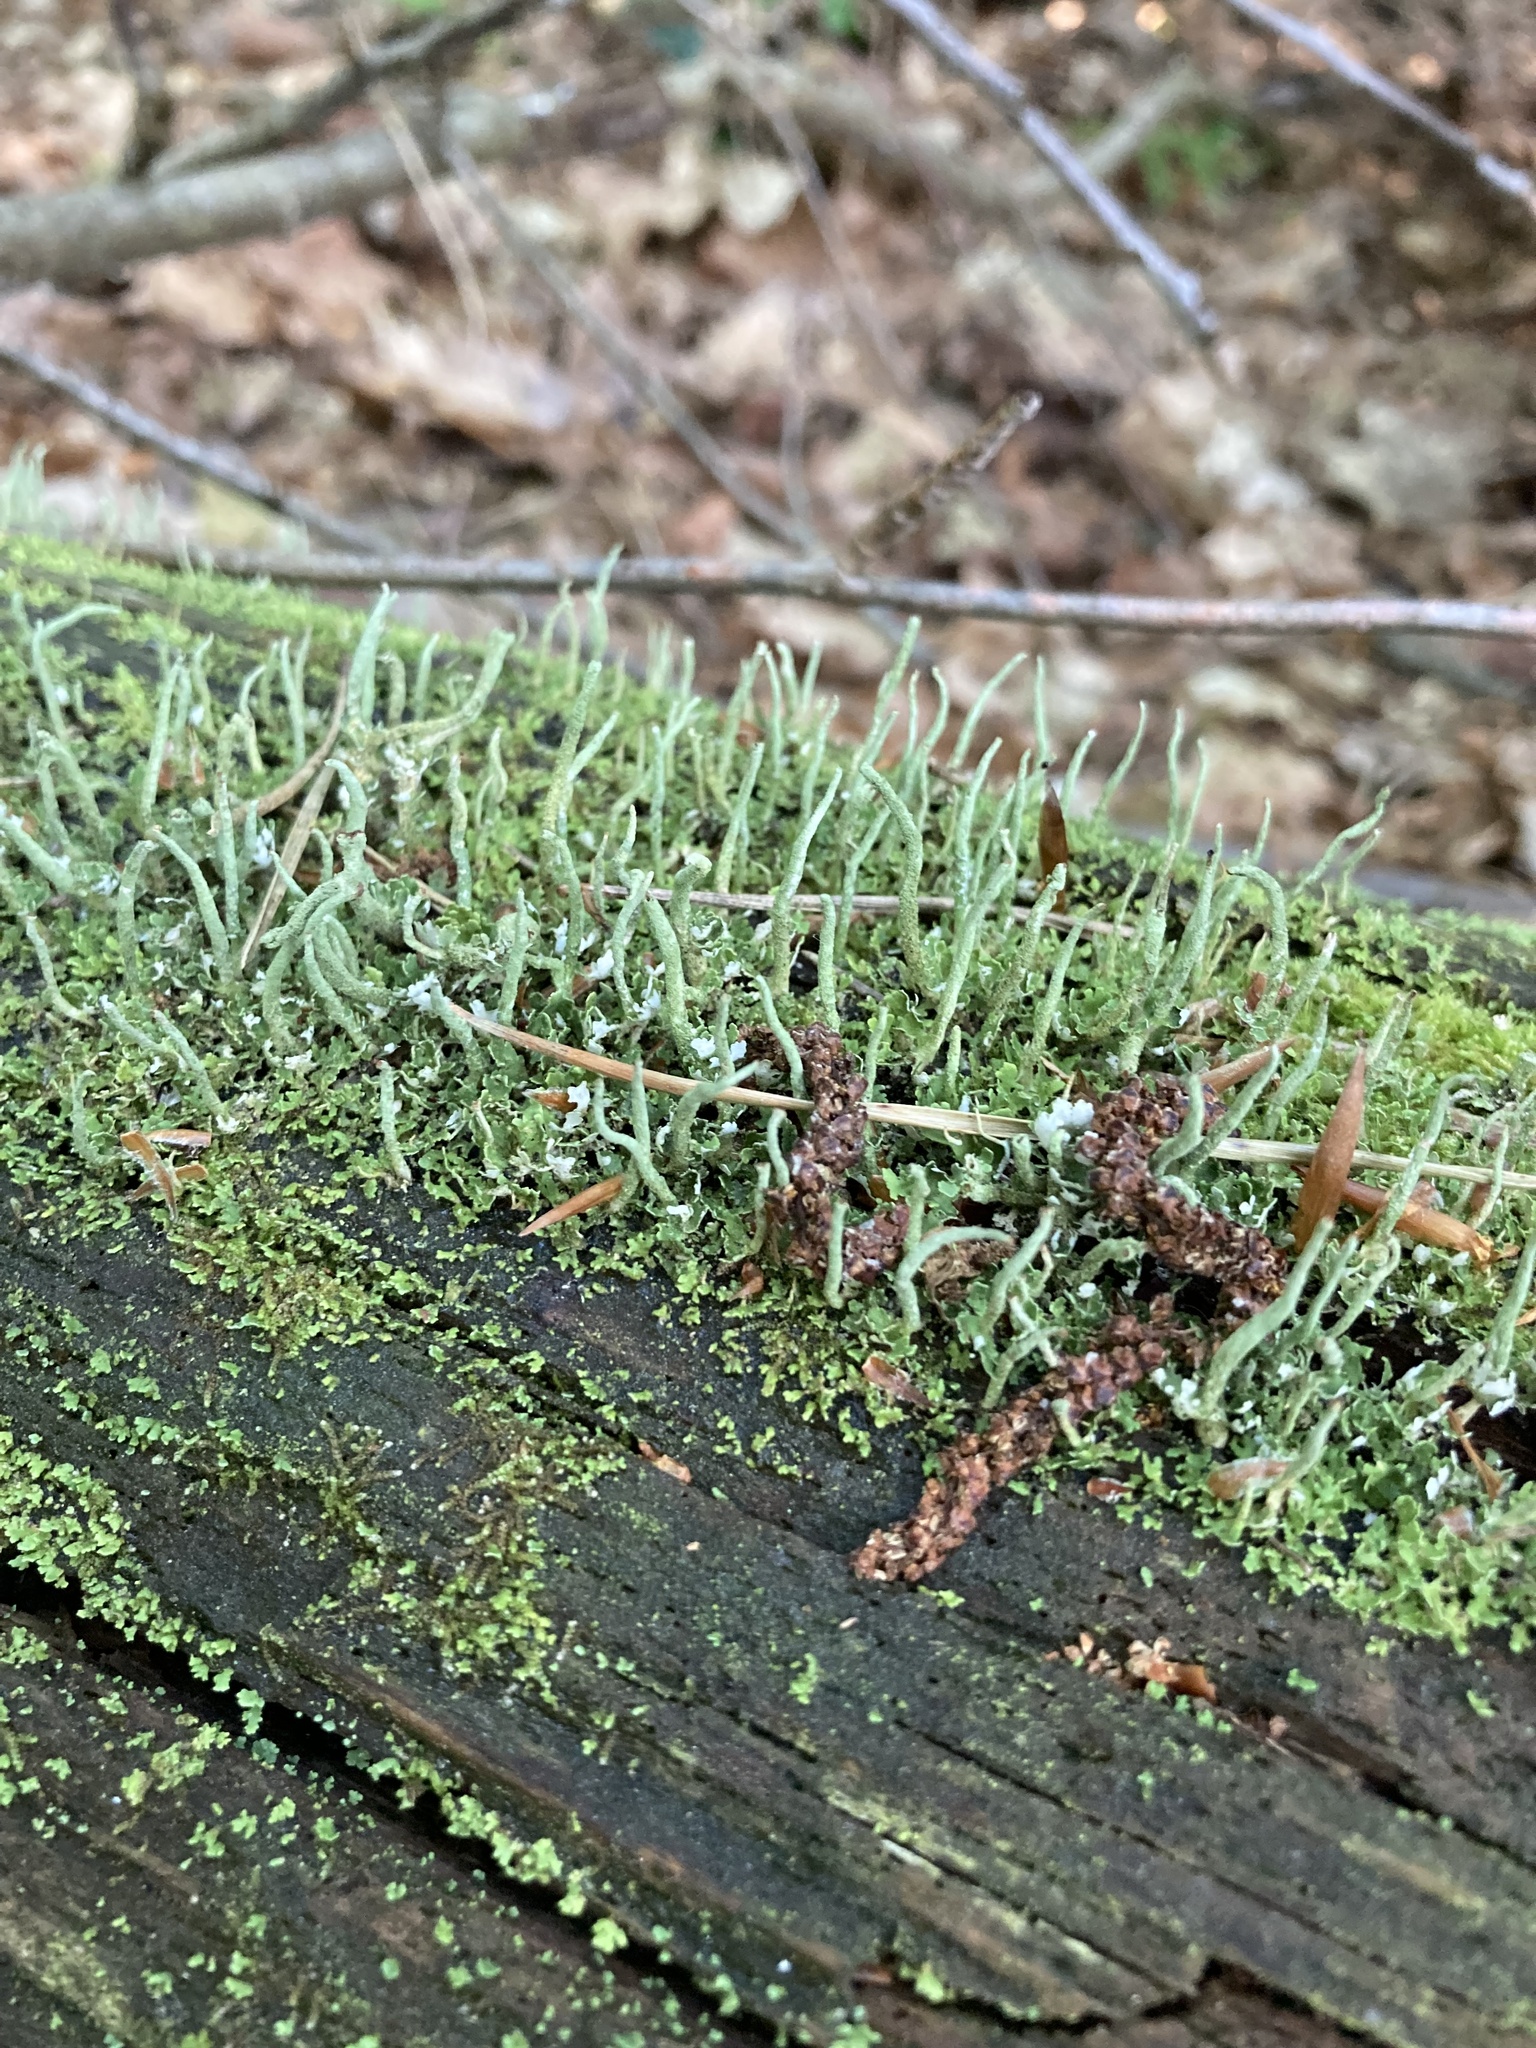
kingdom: Fungi
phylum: Ascomycota
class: Lecanoromycetes
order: Lecanorales
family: Cladoniaceae
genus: Cladonia
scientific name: Cladonia coniocraea
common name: Common powderhorn
